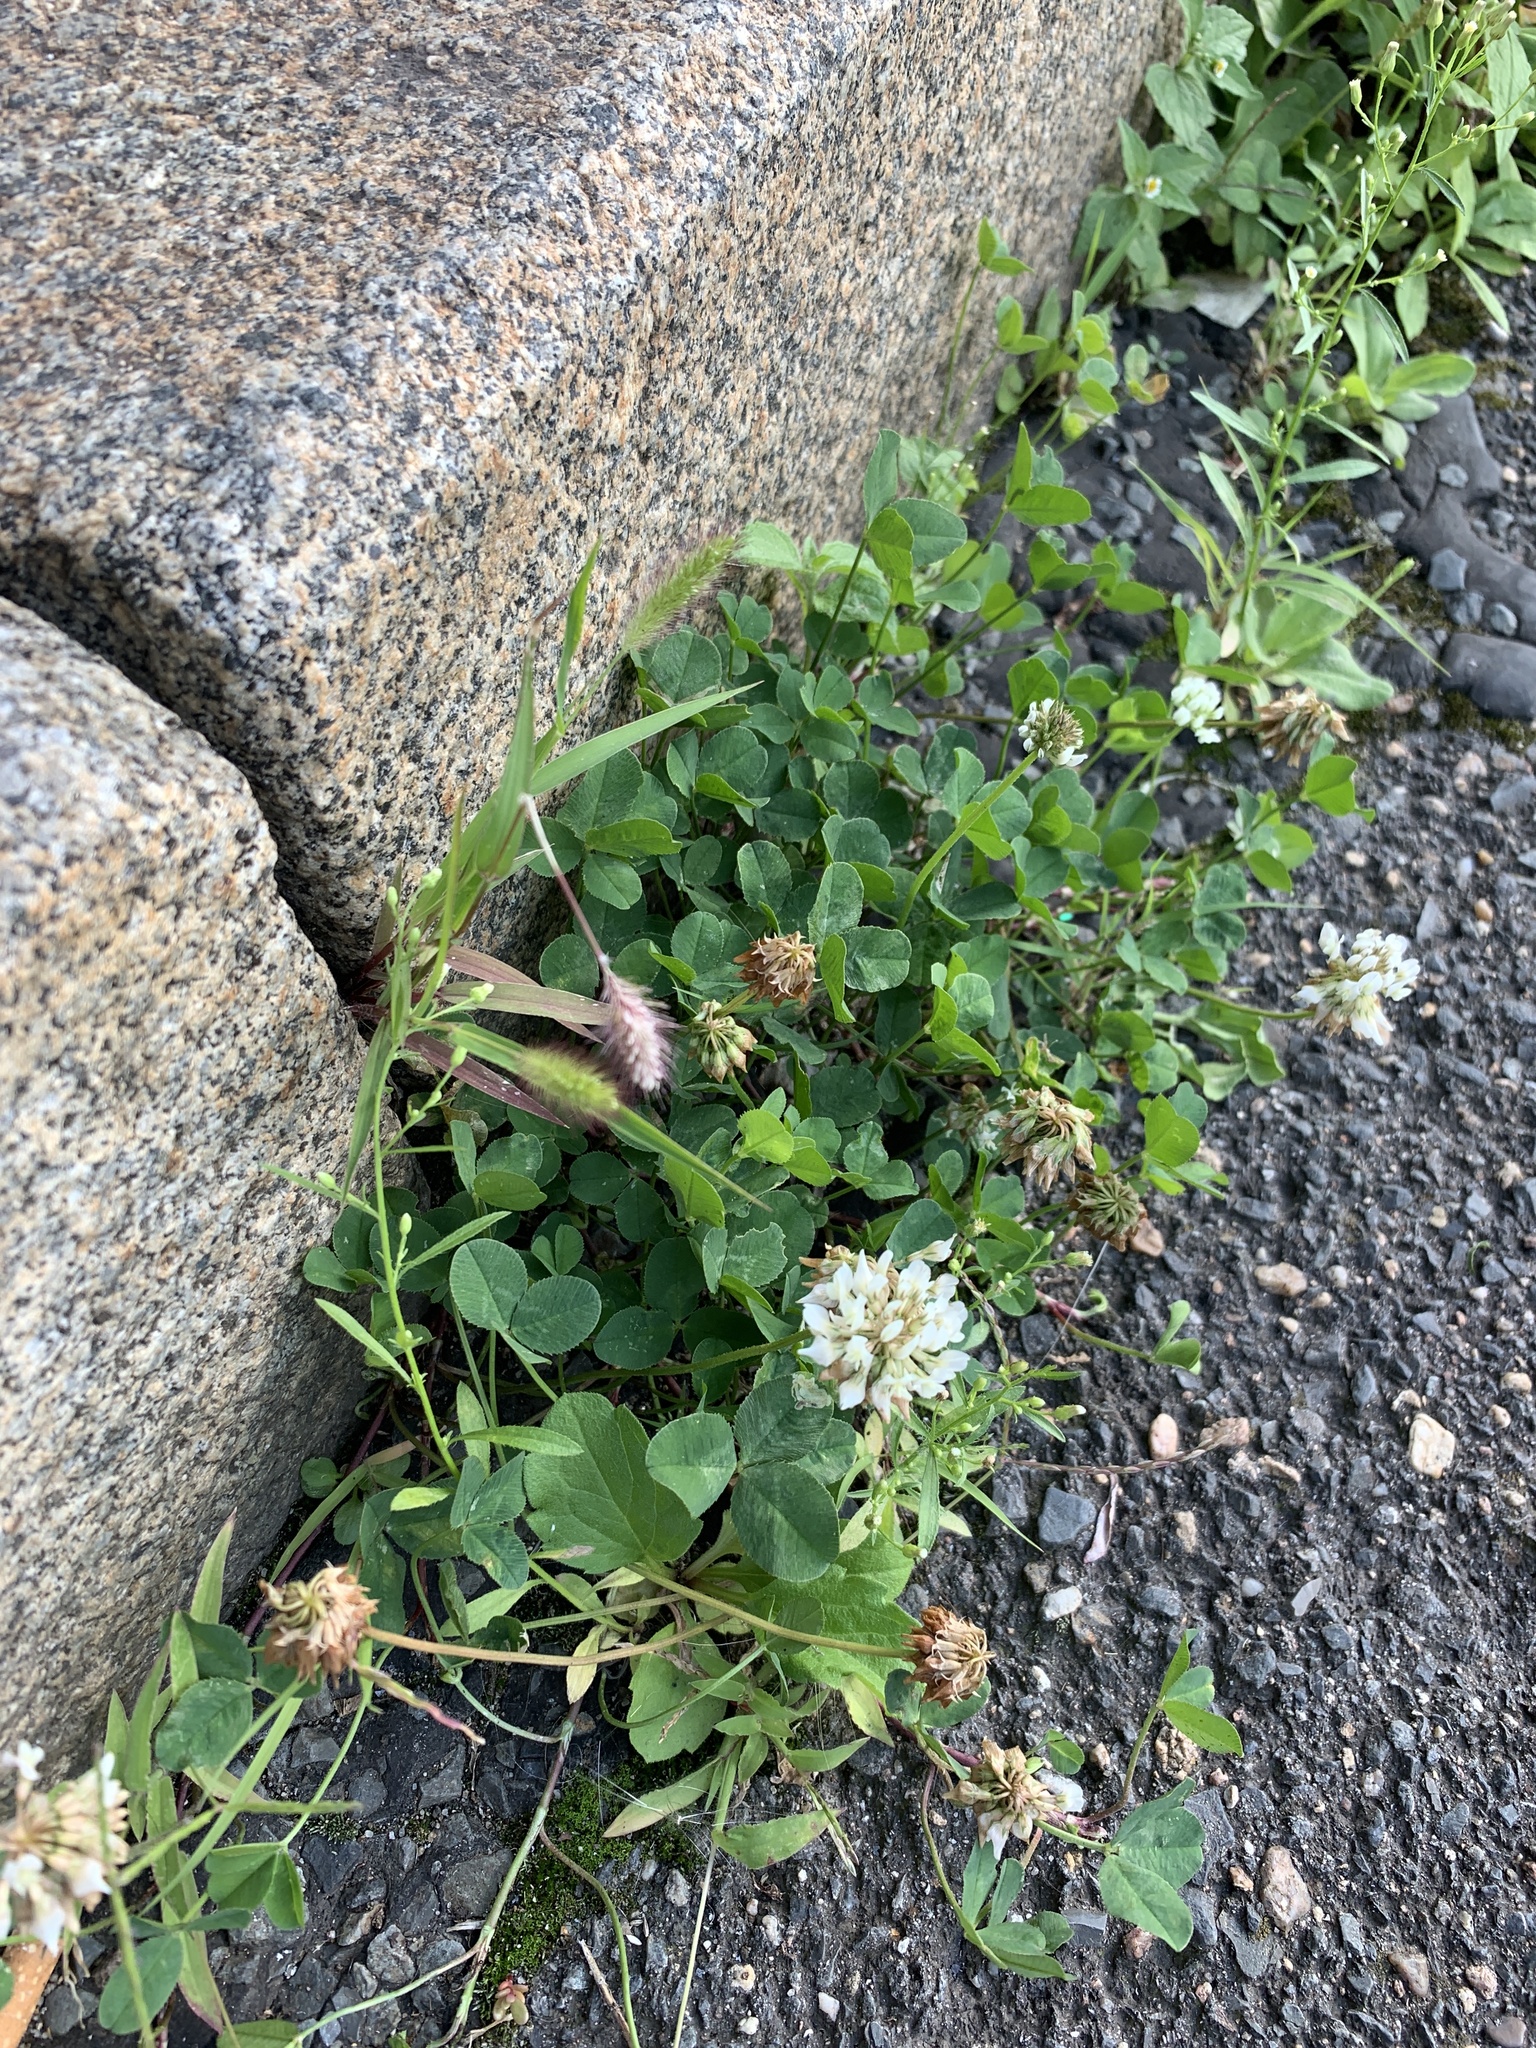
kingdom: Plantae
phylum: Tracheophyta
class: Magnoliopsida
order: Fabales
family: Fabaceae
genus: Trifolium
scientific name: Trifolium repens
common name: White clover
